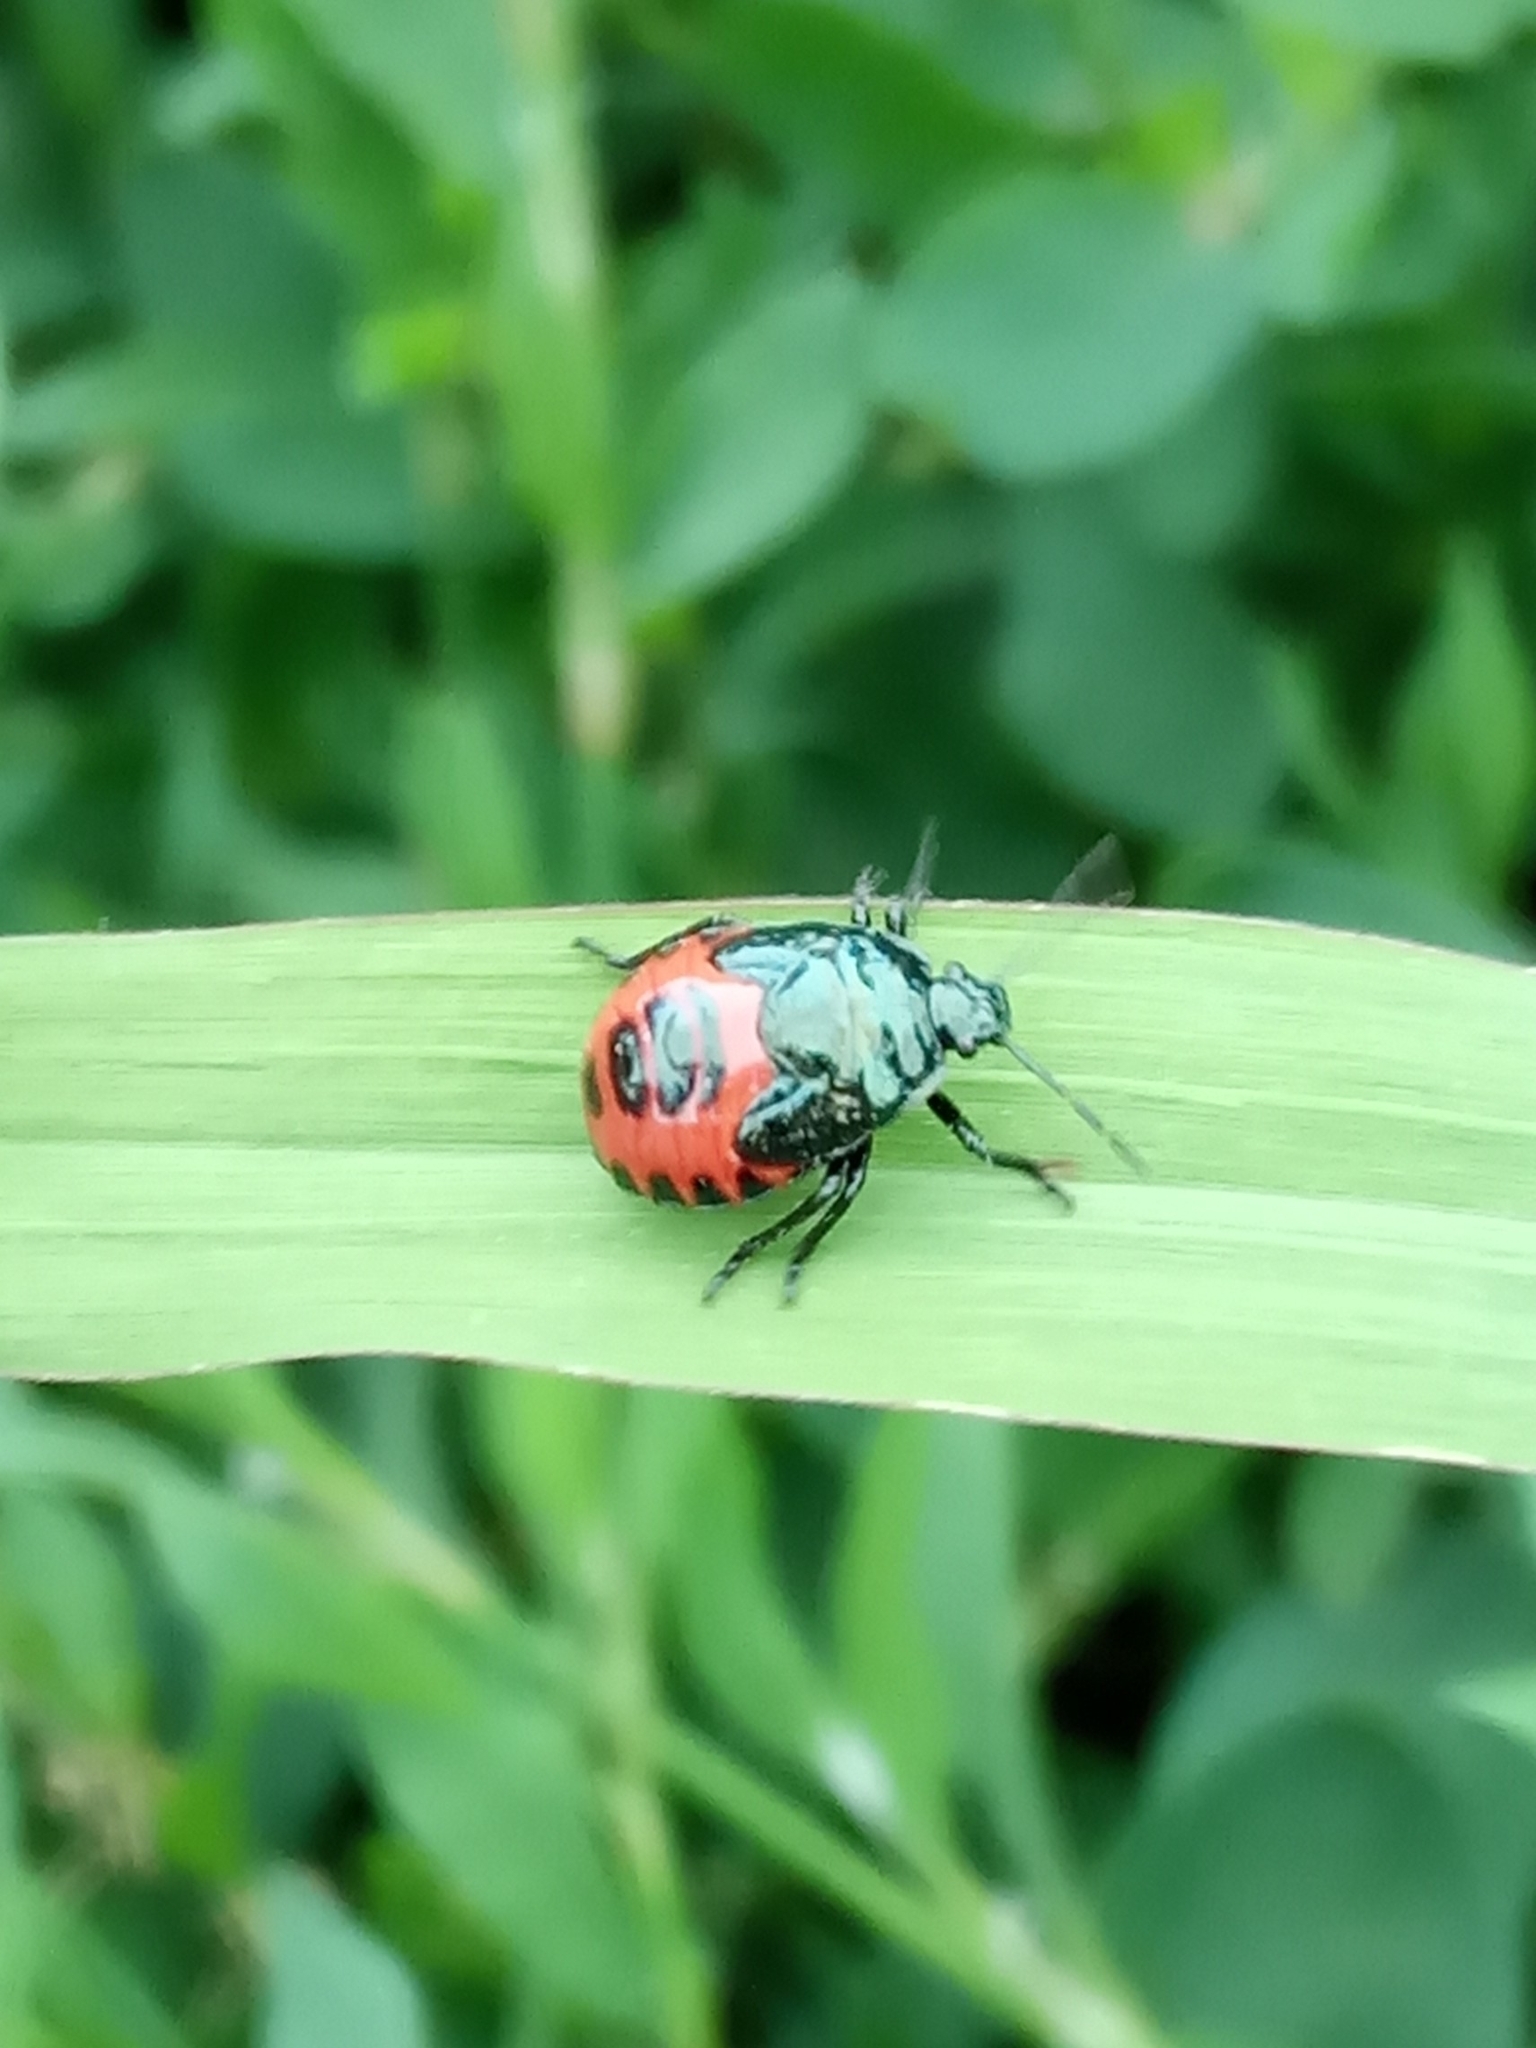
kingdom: Animalia
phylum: Arthropoda
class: Insecta
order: Hemiptera
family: Pentatomidae
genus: Zicrona
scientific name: Zicrona caerulea
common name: Blue shieldbug
